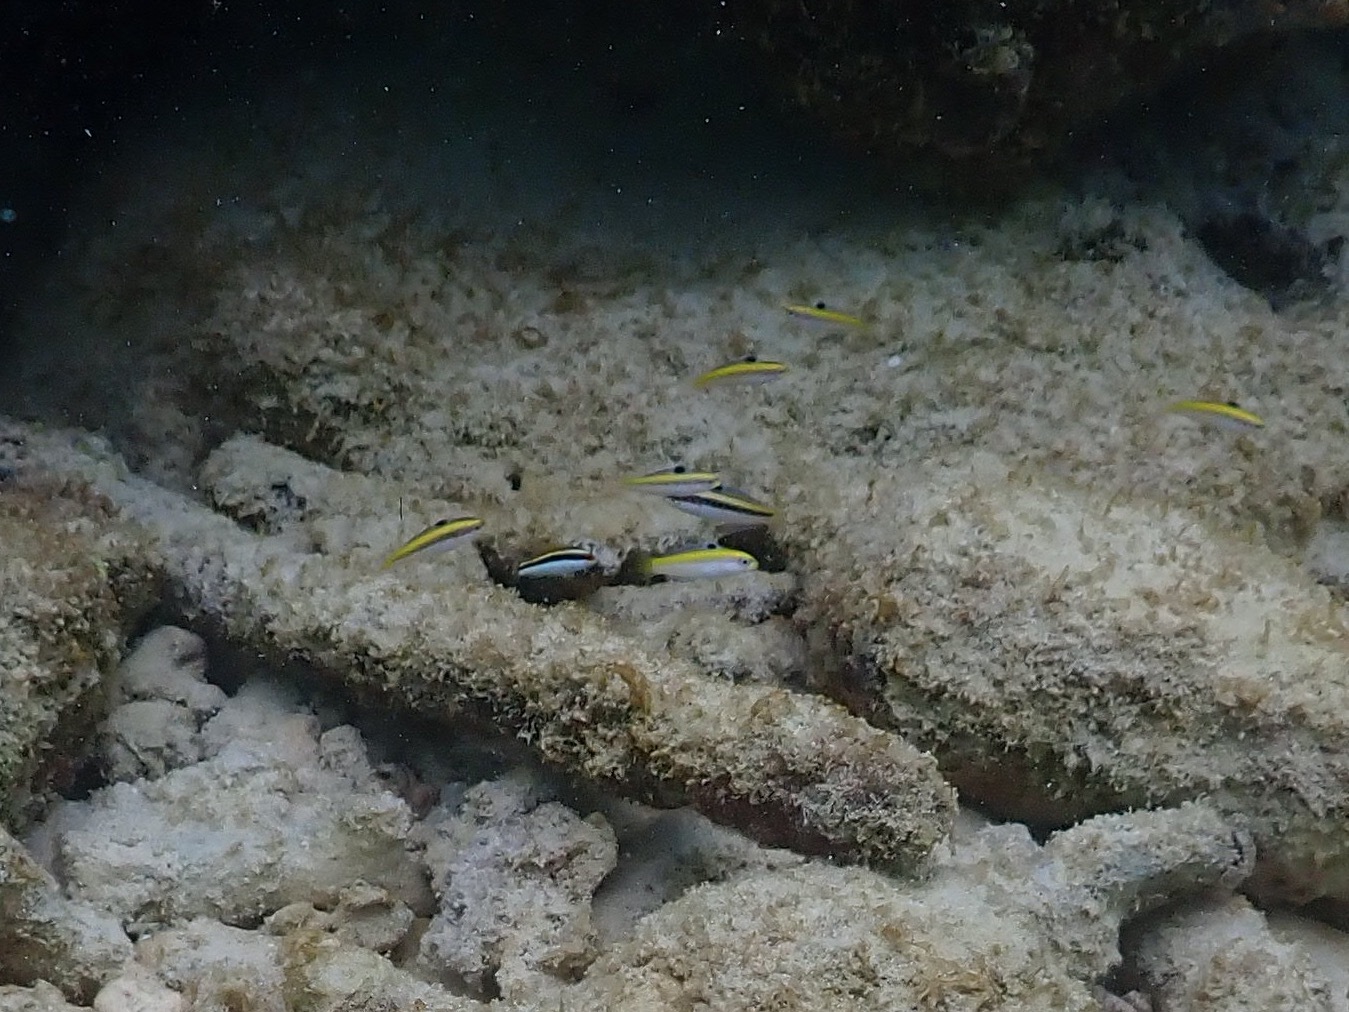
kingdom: Animalia
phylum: Chordata
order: Perciformes
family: Labridae
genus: Thalassoma
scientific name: Thalassoma bifasciatum
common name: Bluehead wrasse
